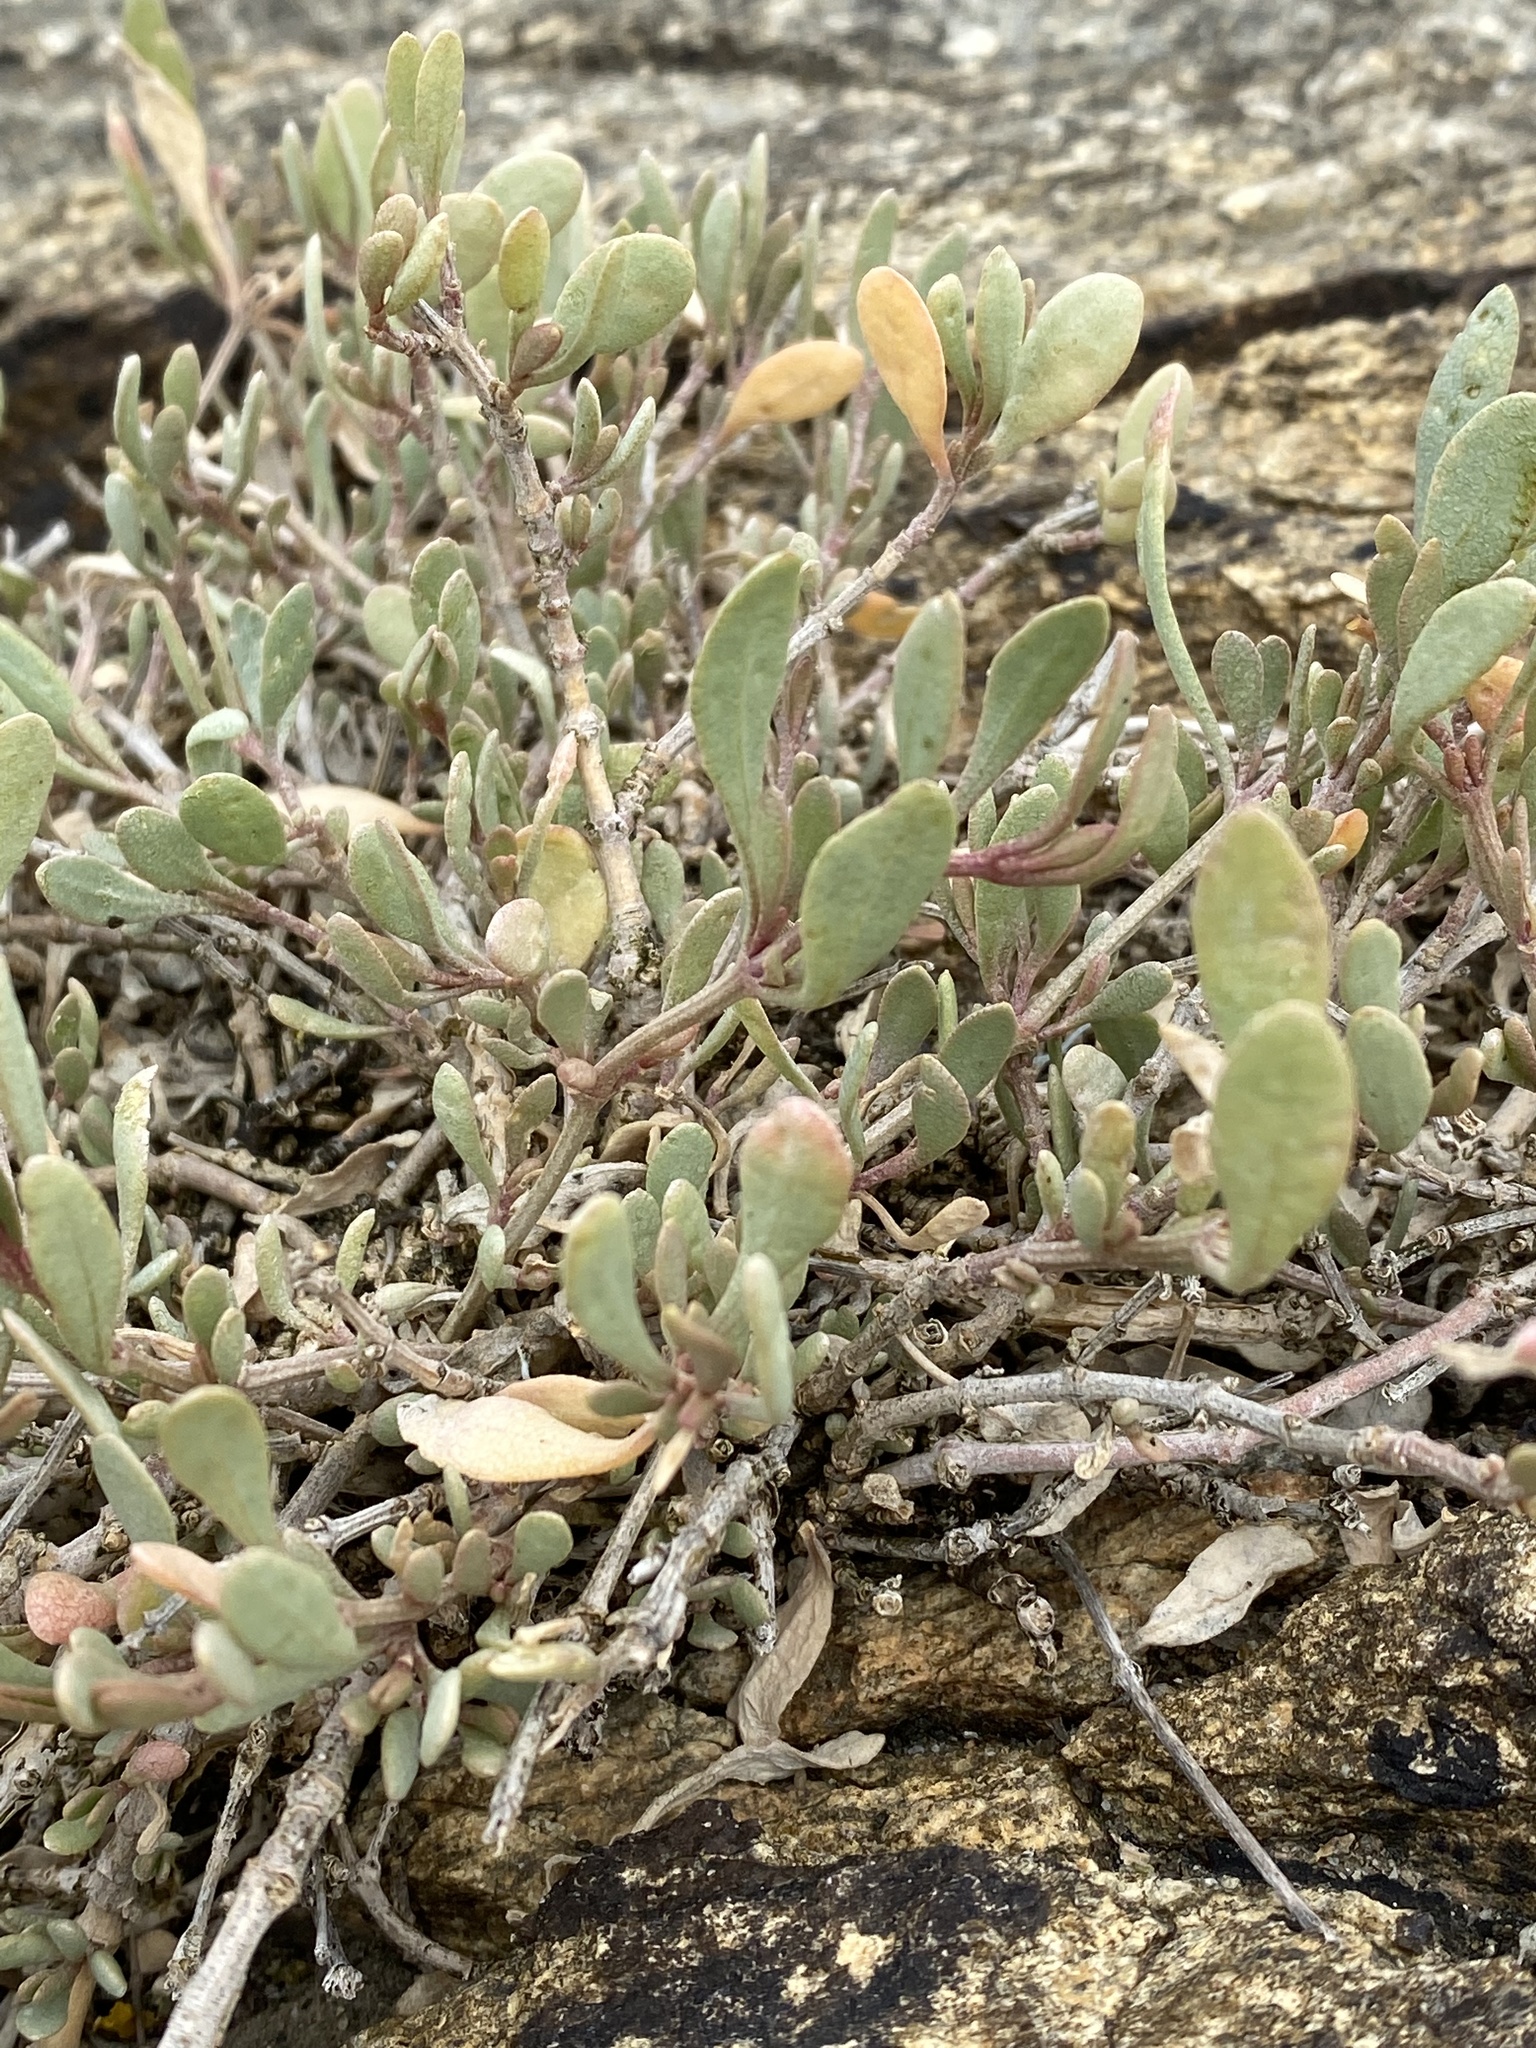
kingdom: Plantae
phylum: Tracheophyta
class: Magnoliopsida
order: Caryophyllales
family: Amaranthaceae
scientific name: Amaranthaceae
